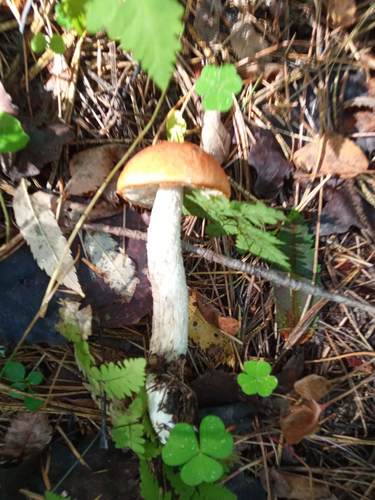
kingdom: Fungi
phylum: Basidiomycota
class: Agaricomycetes
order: Boletales
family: Boletaceae
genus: Leccinum
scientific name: Leccinum albostipitatum
